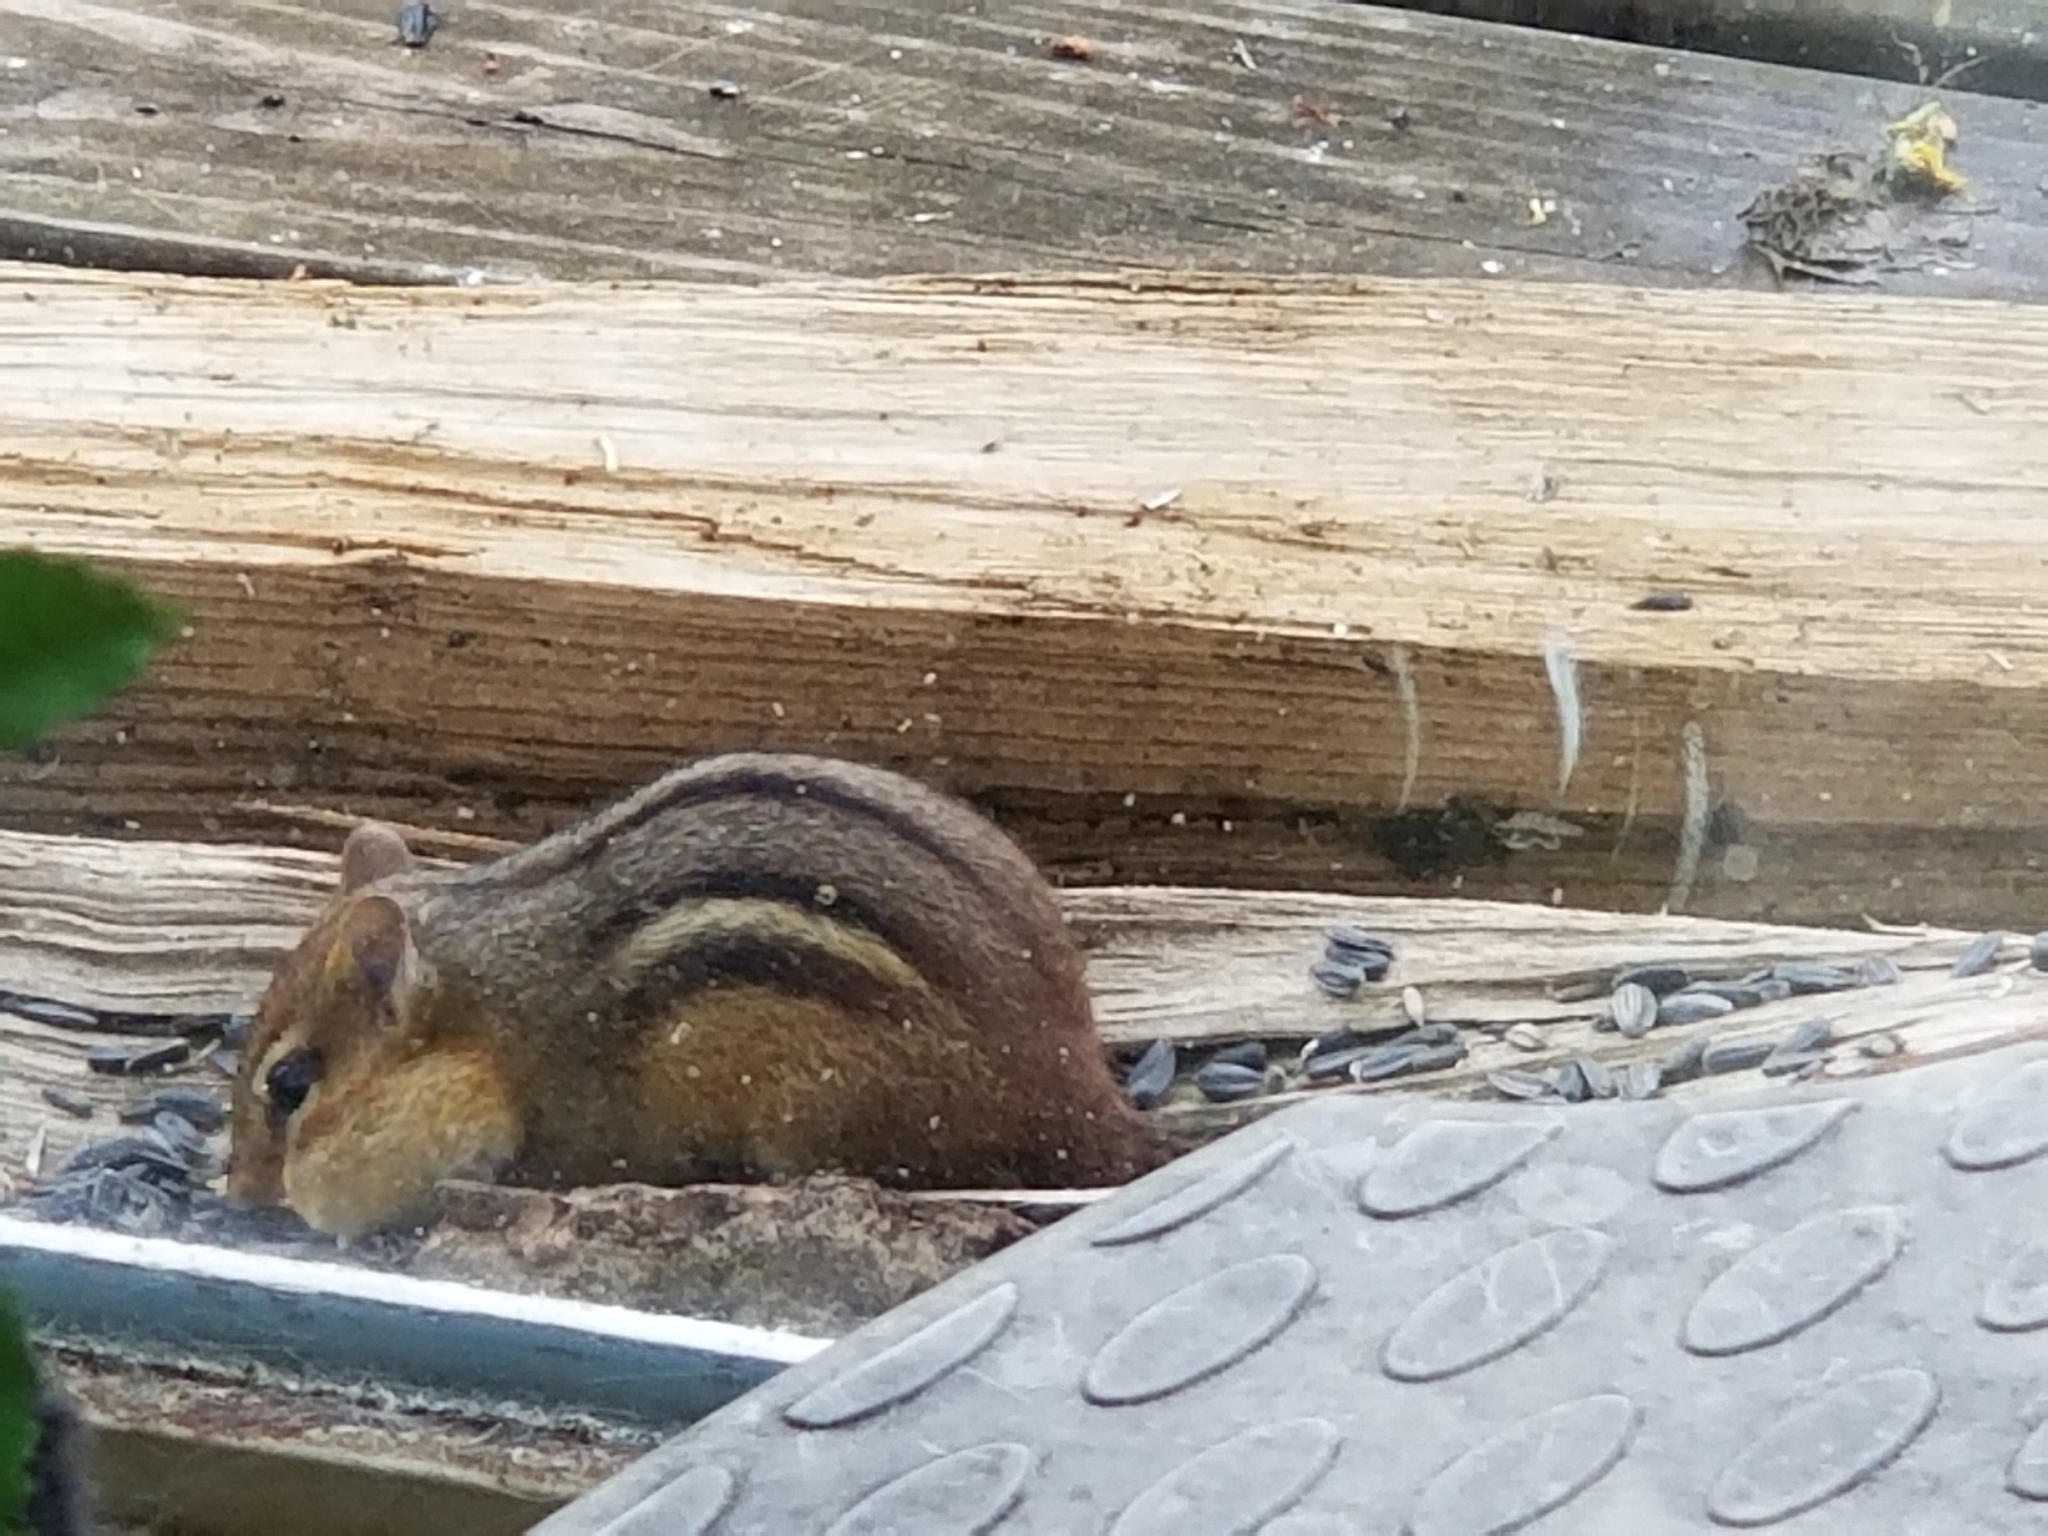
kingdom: Animalia
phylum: Chordata
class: Mammalia
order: Rodentia
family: Sciuridae
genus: Tamias
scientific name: Tamias striatus
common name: Eastern chipmunk
